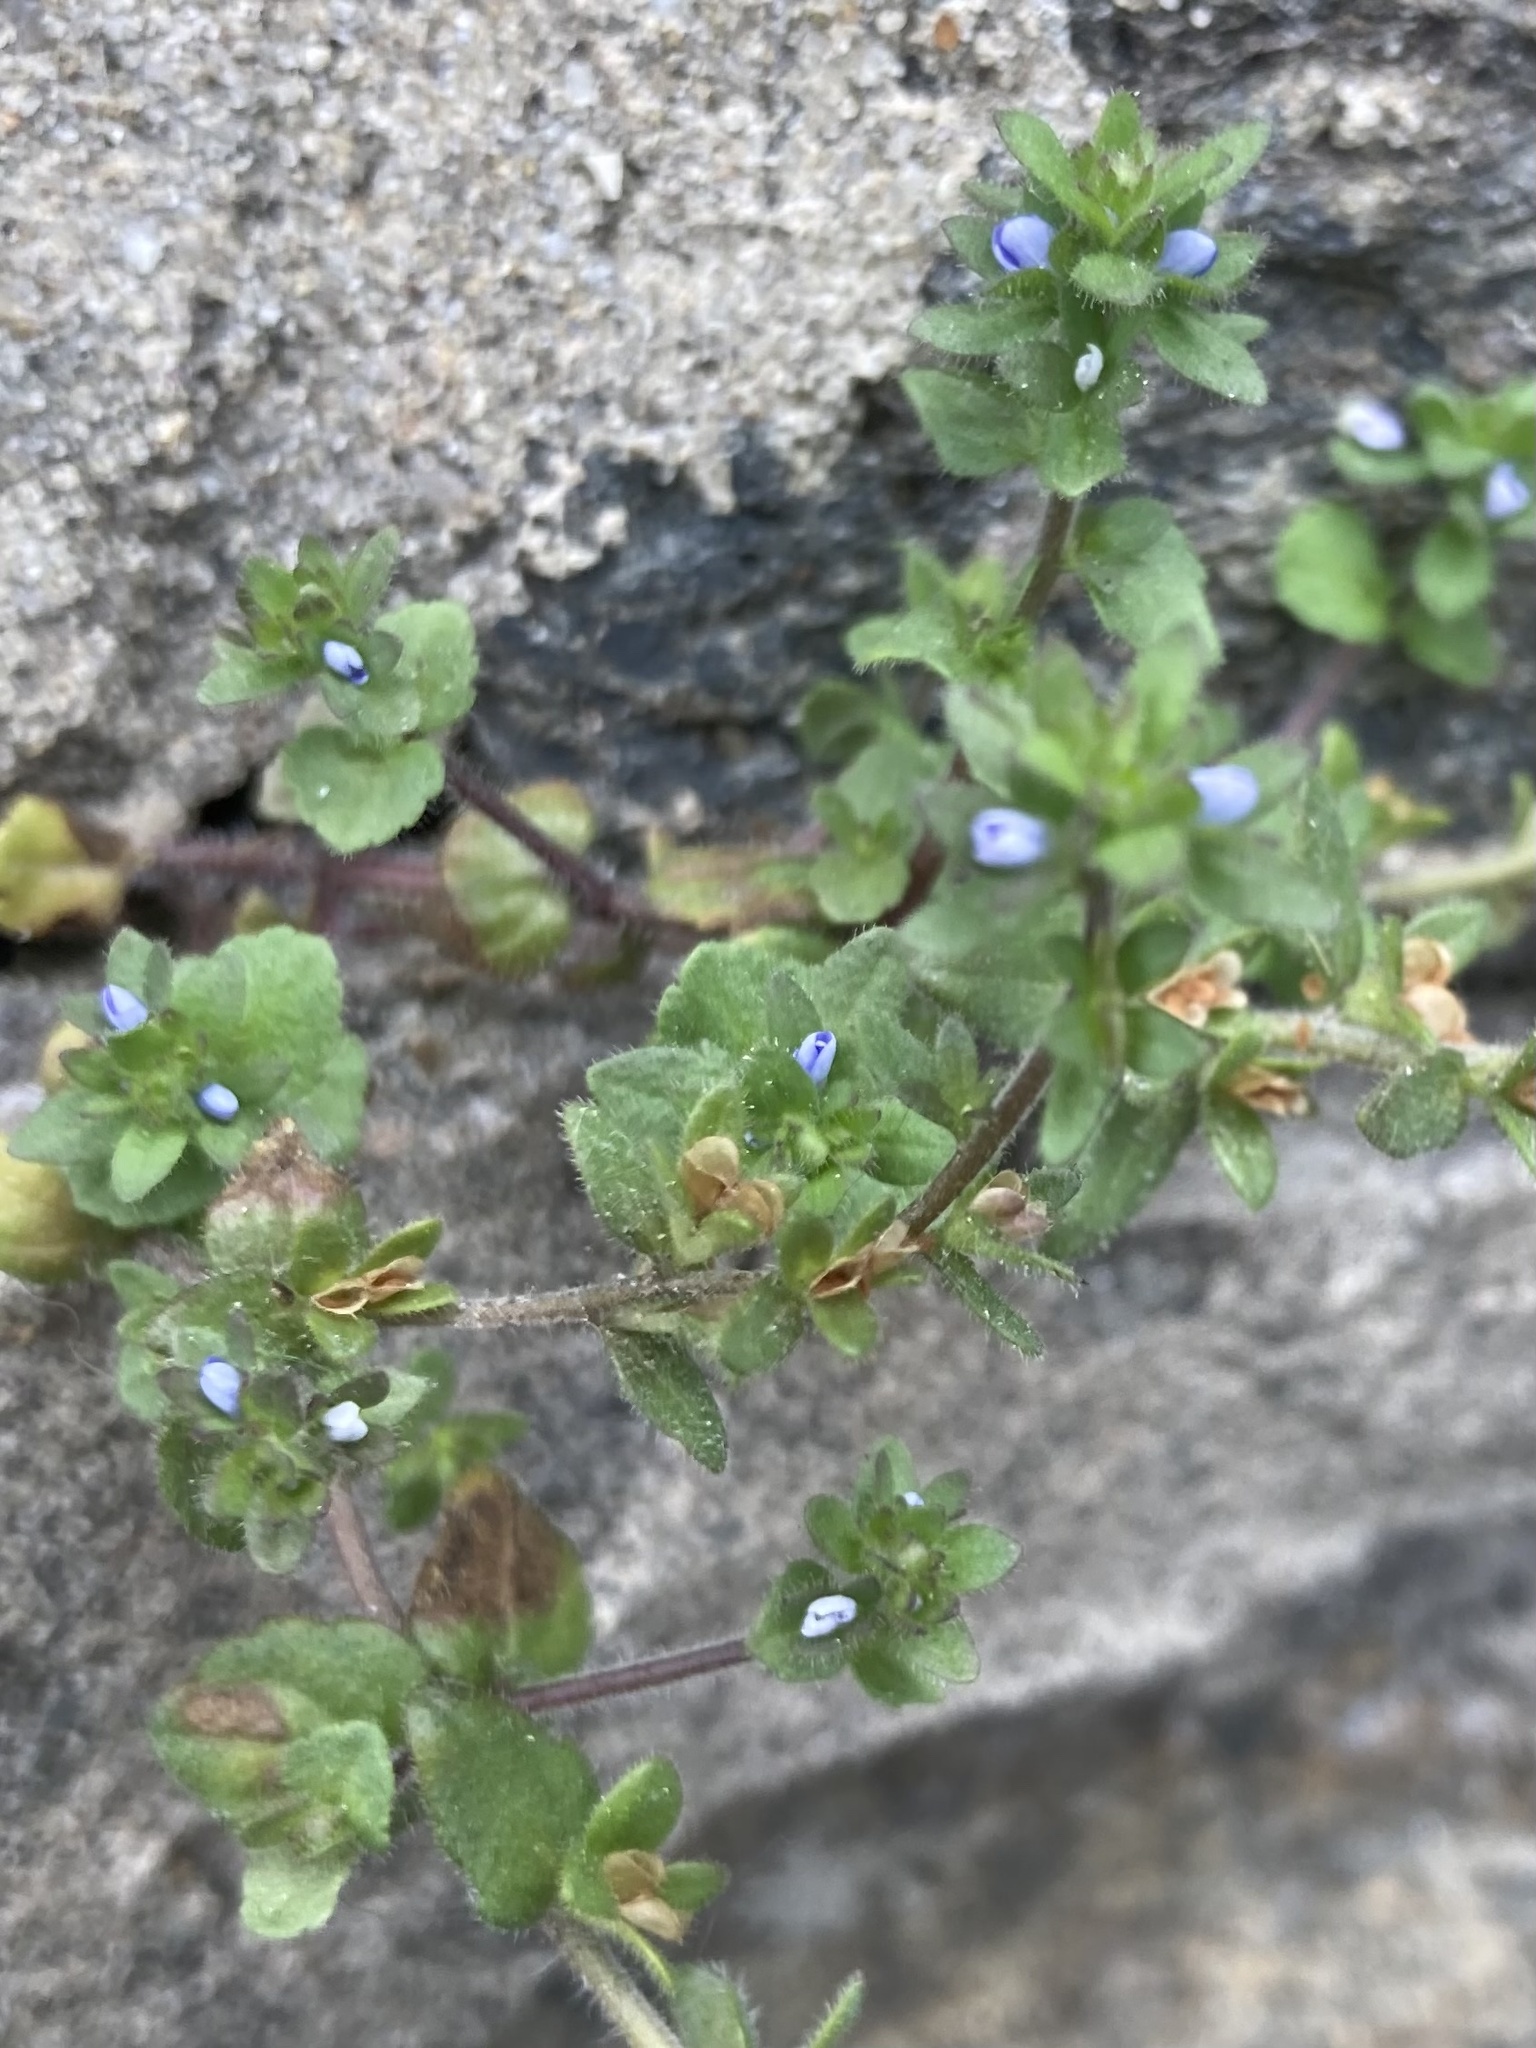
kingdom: Plantae
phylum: Tracheophyta
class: Magnoliopsida
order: Lamiales
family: Plantaginaceae
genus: Veronica
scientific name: Veronica arvensis
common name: Corn speedwell
